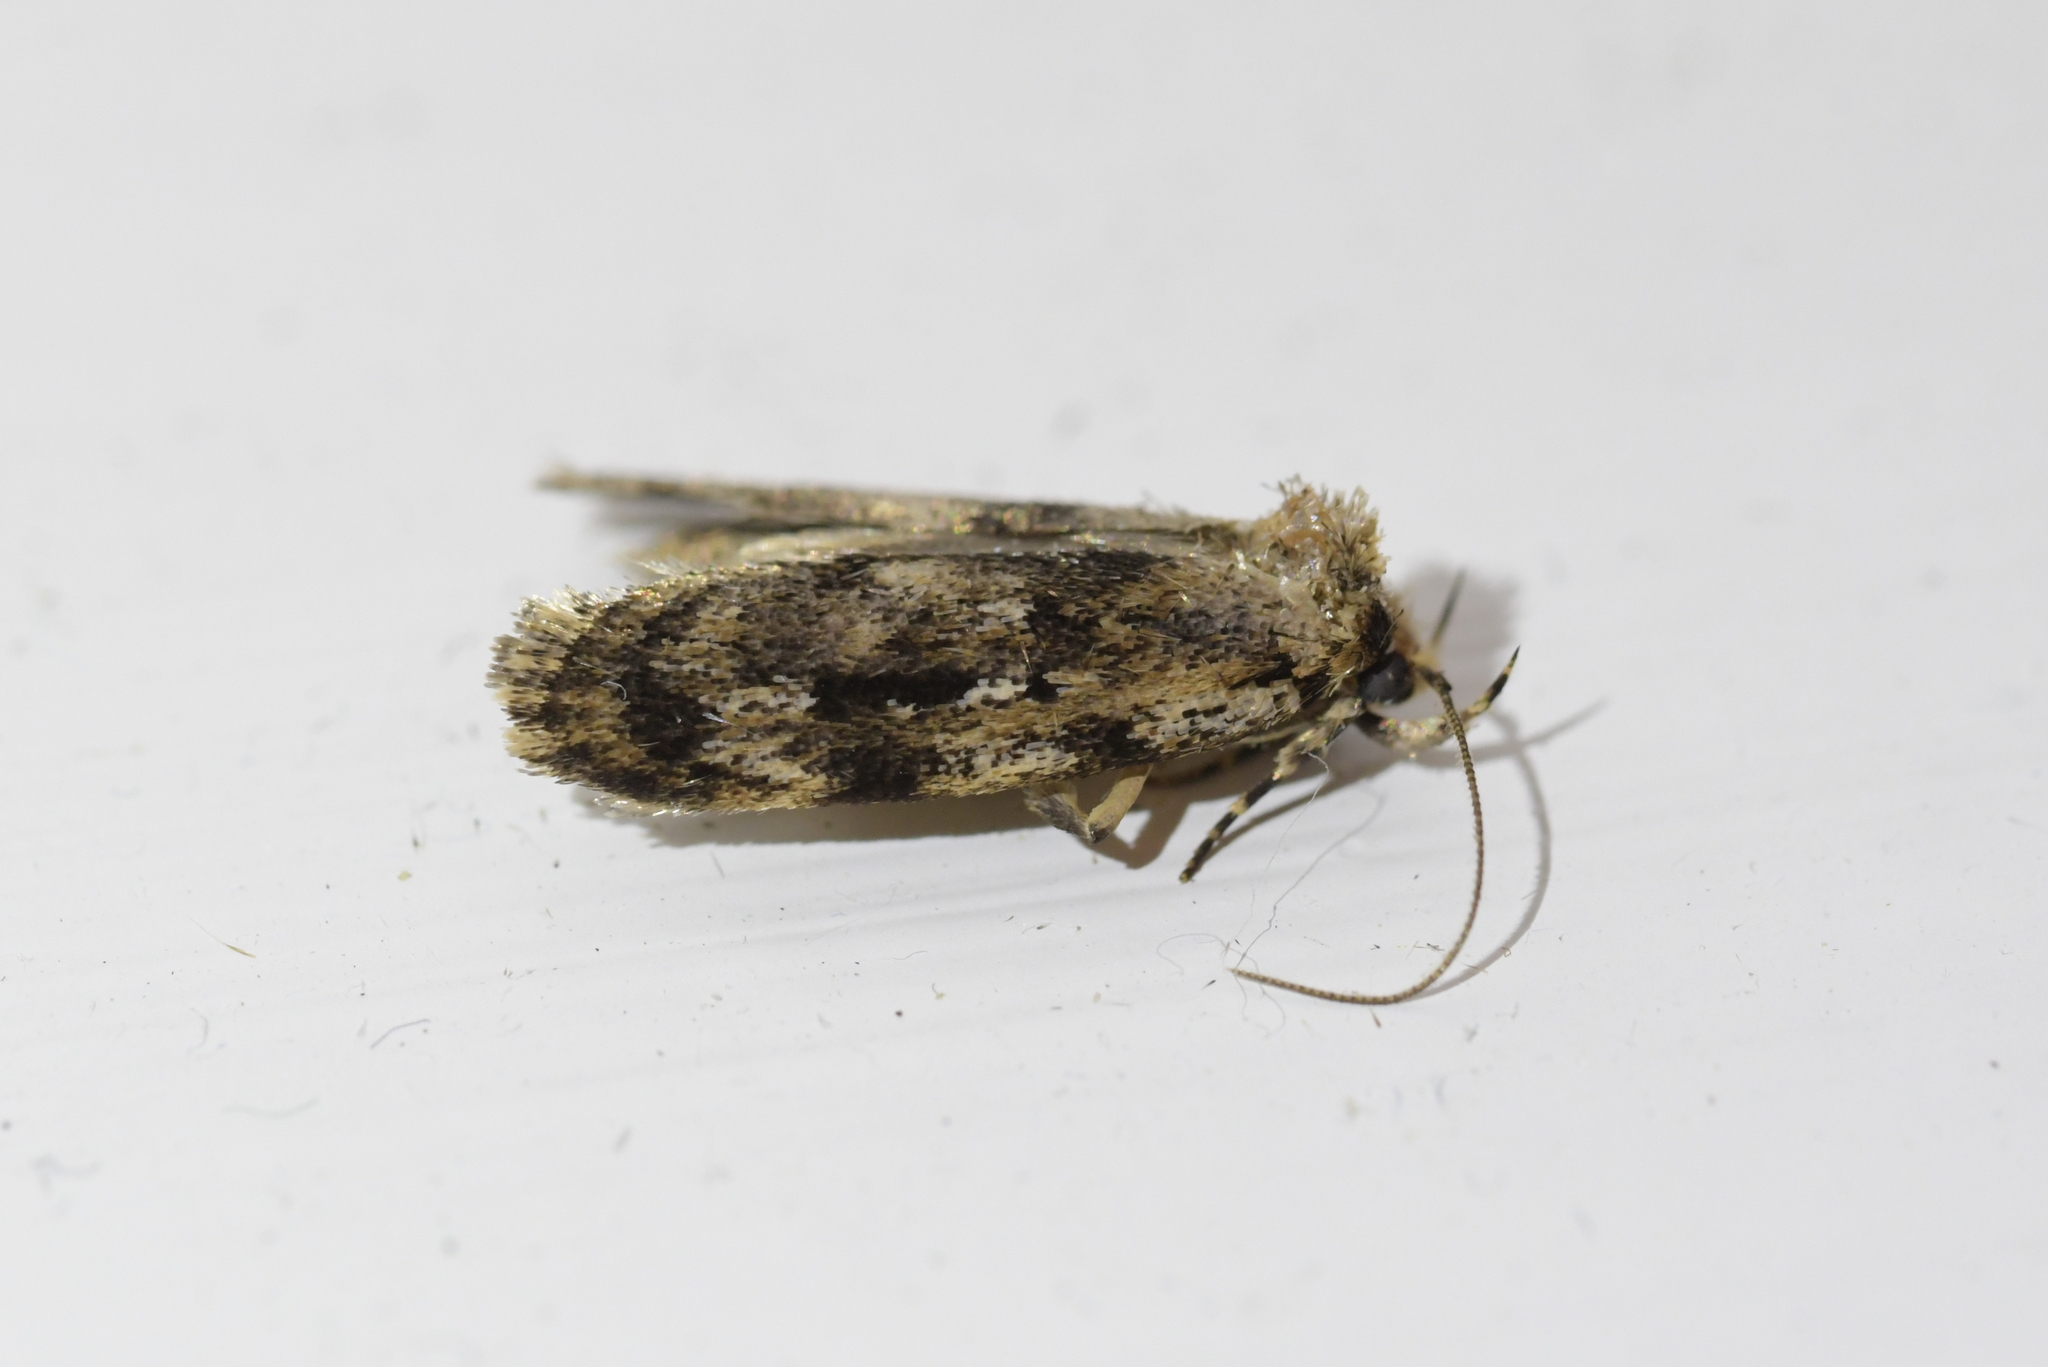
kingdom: Animalia
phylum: Arthropoda
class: Insecta
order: Lepidoptera
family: Oecophoridae
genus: Barea
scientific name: Barea exarcha
